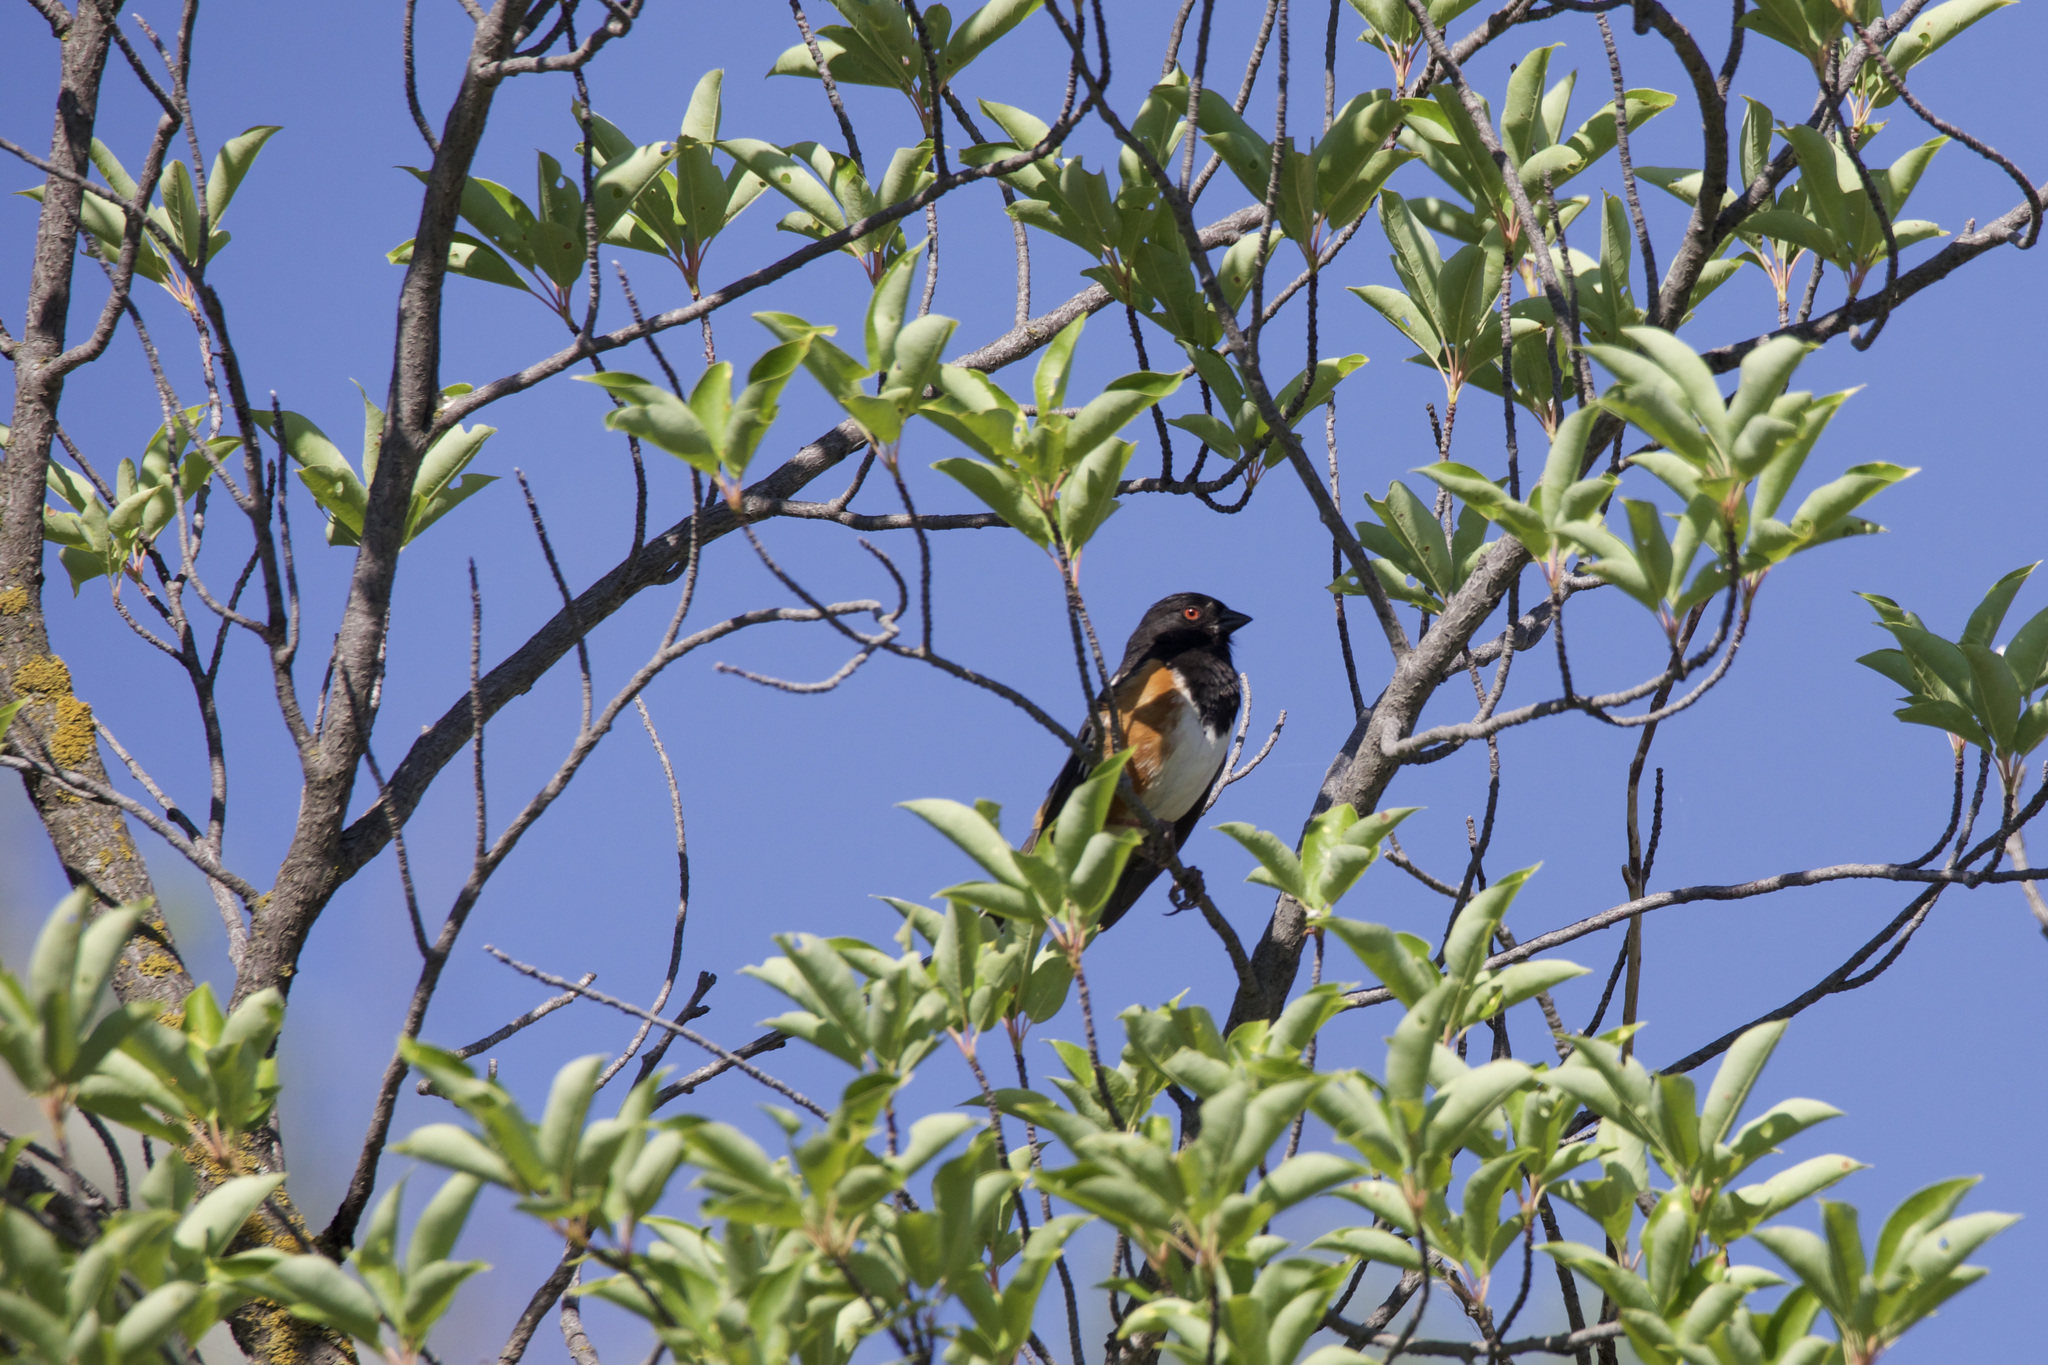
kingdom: Animalia
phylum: Chordata
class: Aves
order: Passeriformes
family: Passerellidae
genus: Pipilo
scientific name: Pipilo maculatus
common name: Spotted towhee
